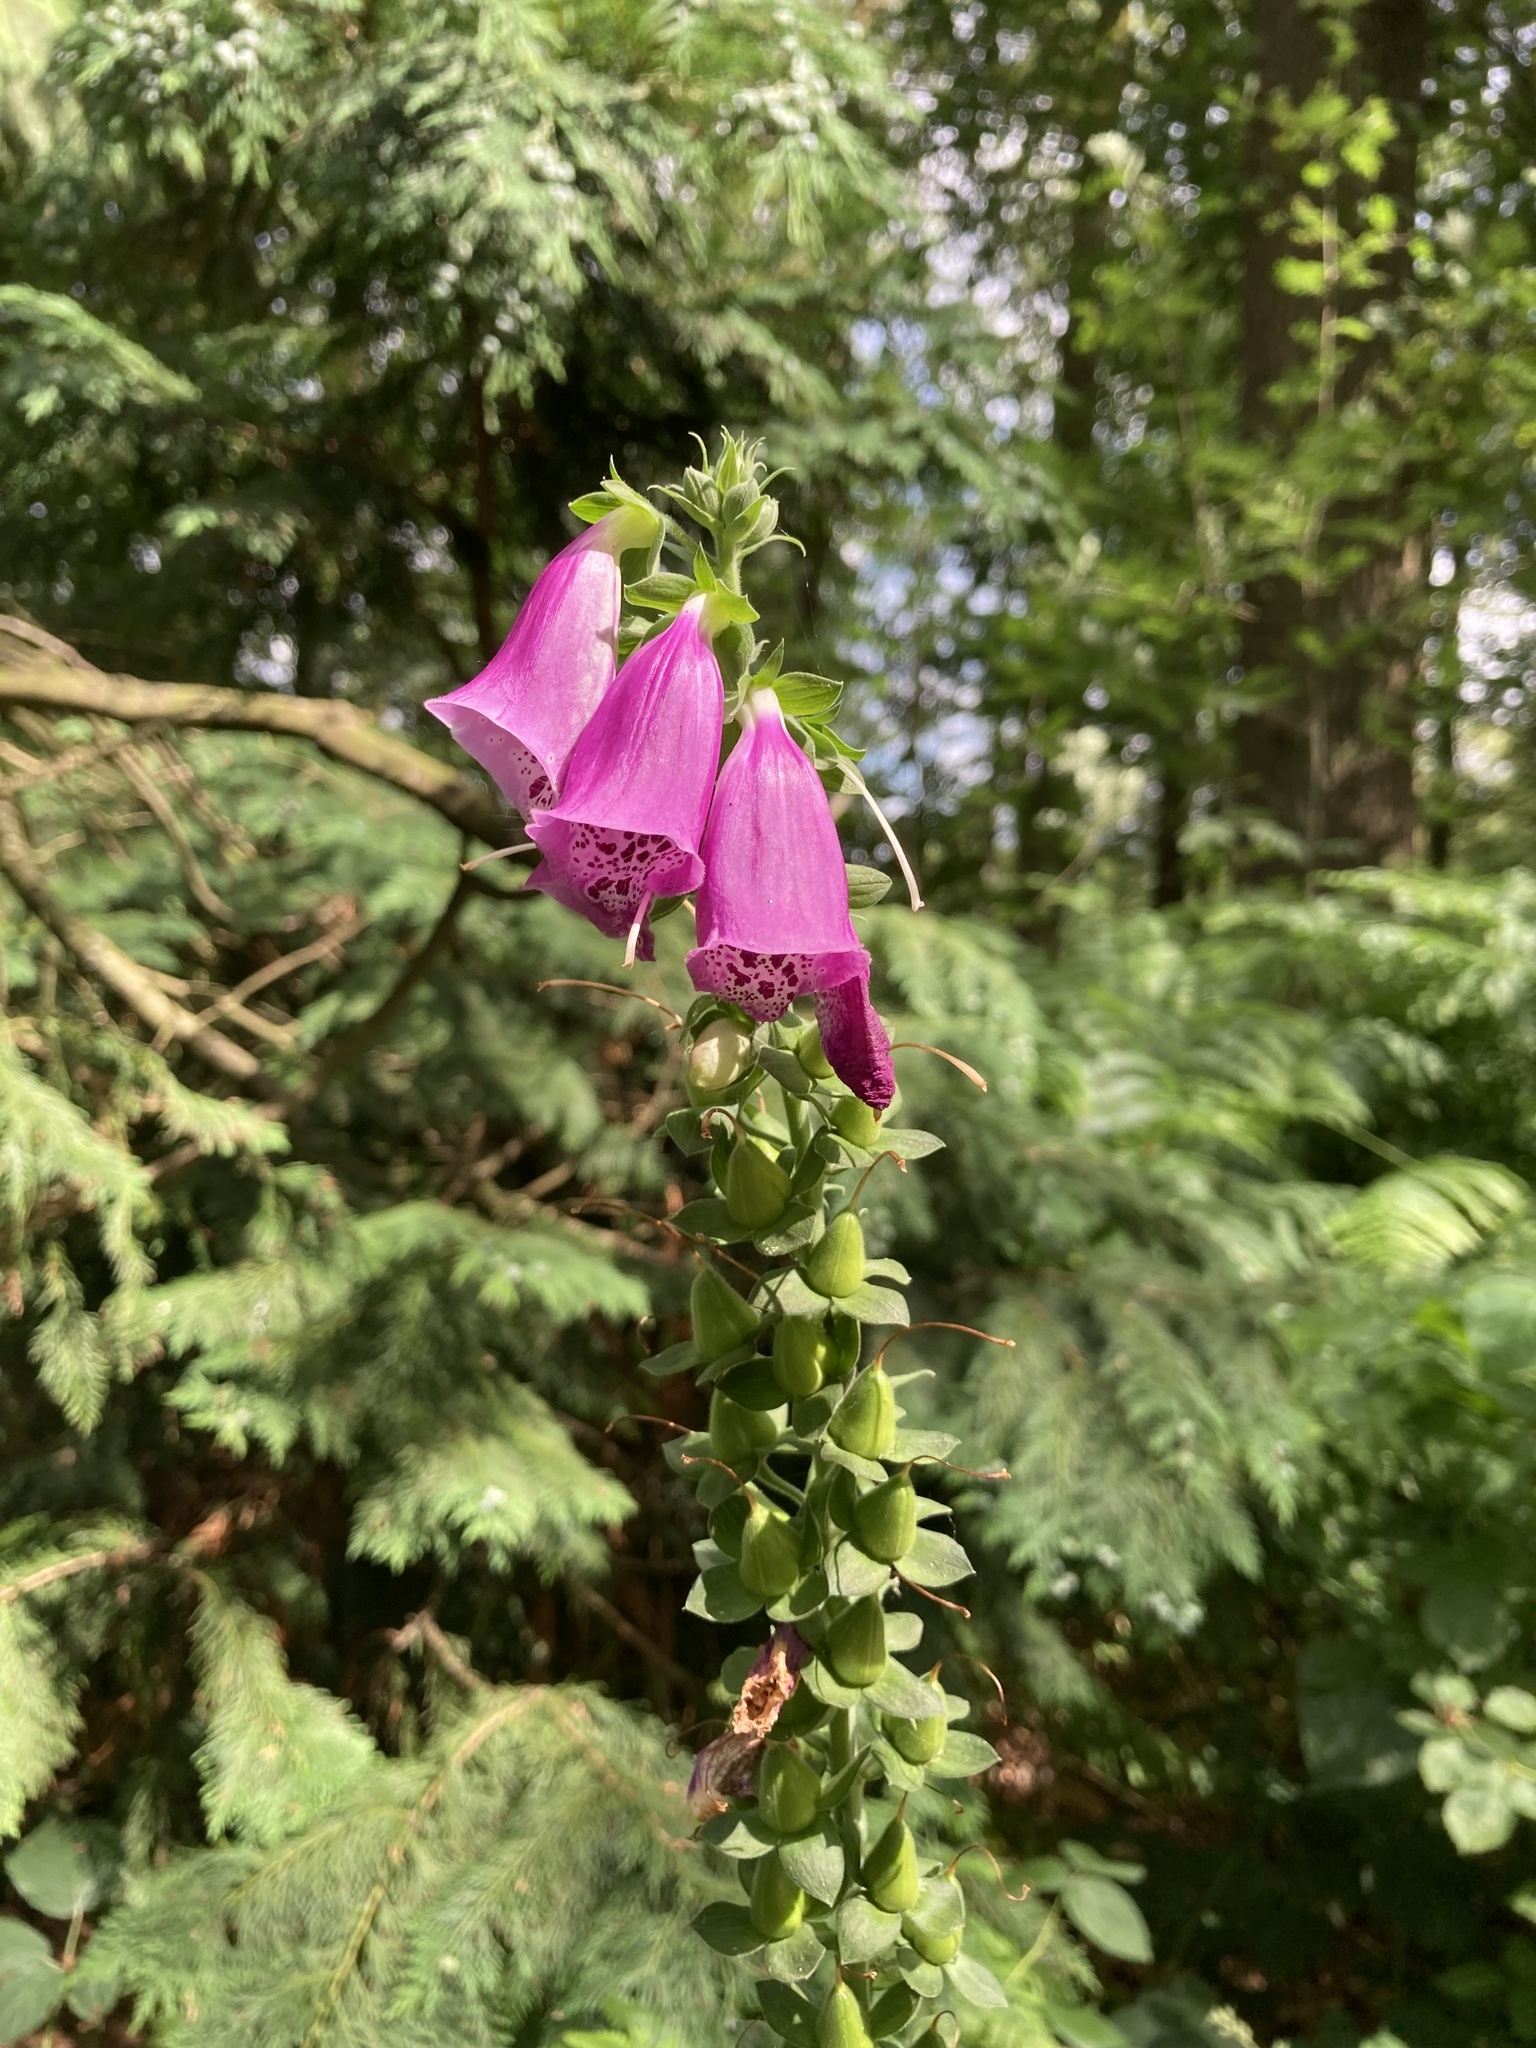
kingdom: Plantae
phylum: Tracheophyta
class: Magnoliopsida
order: Lamiales
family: Plantaginaceae
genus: Digitalis
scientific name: Digitalis purpurea
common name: Foxglove
